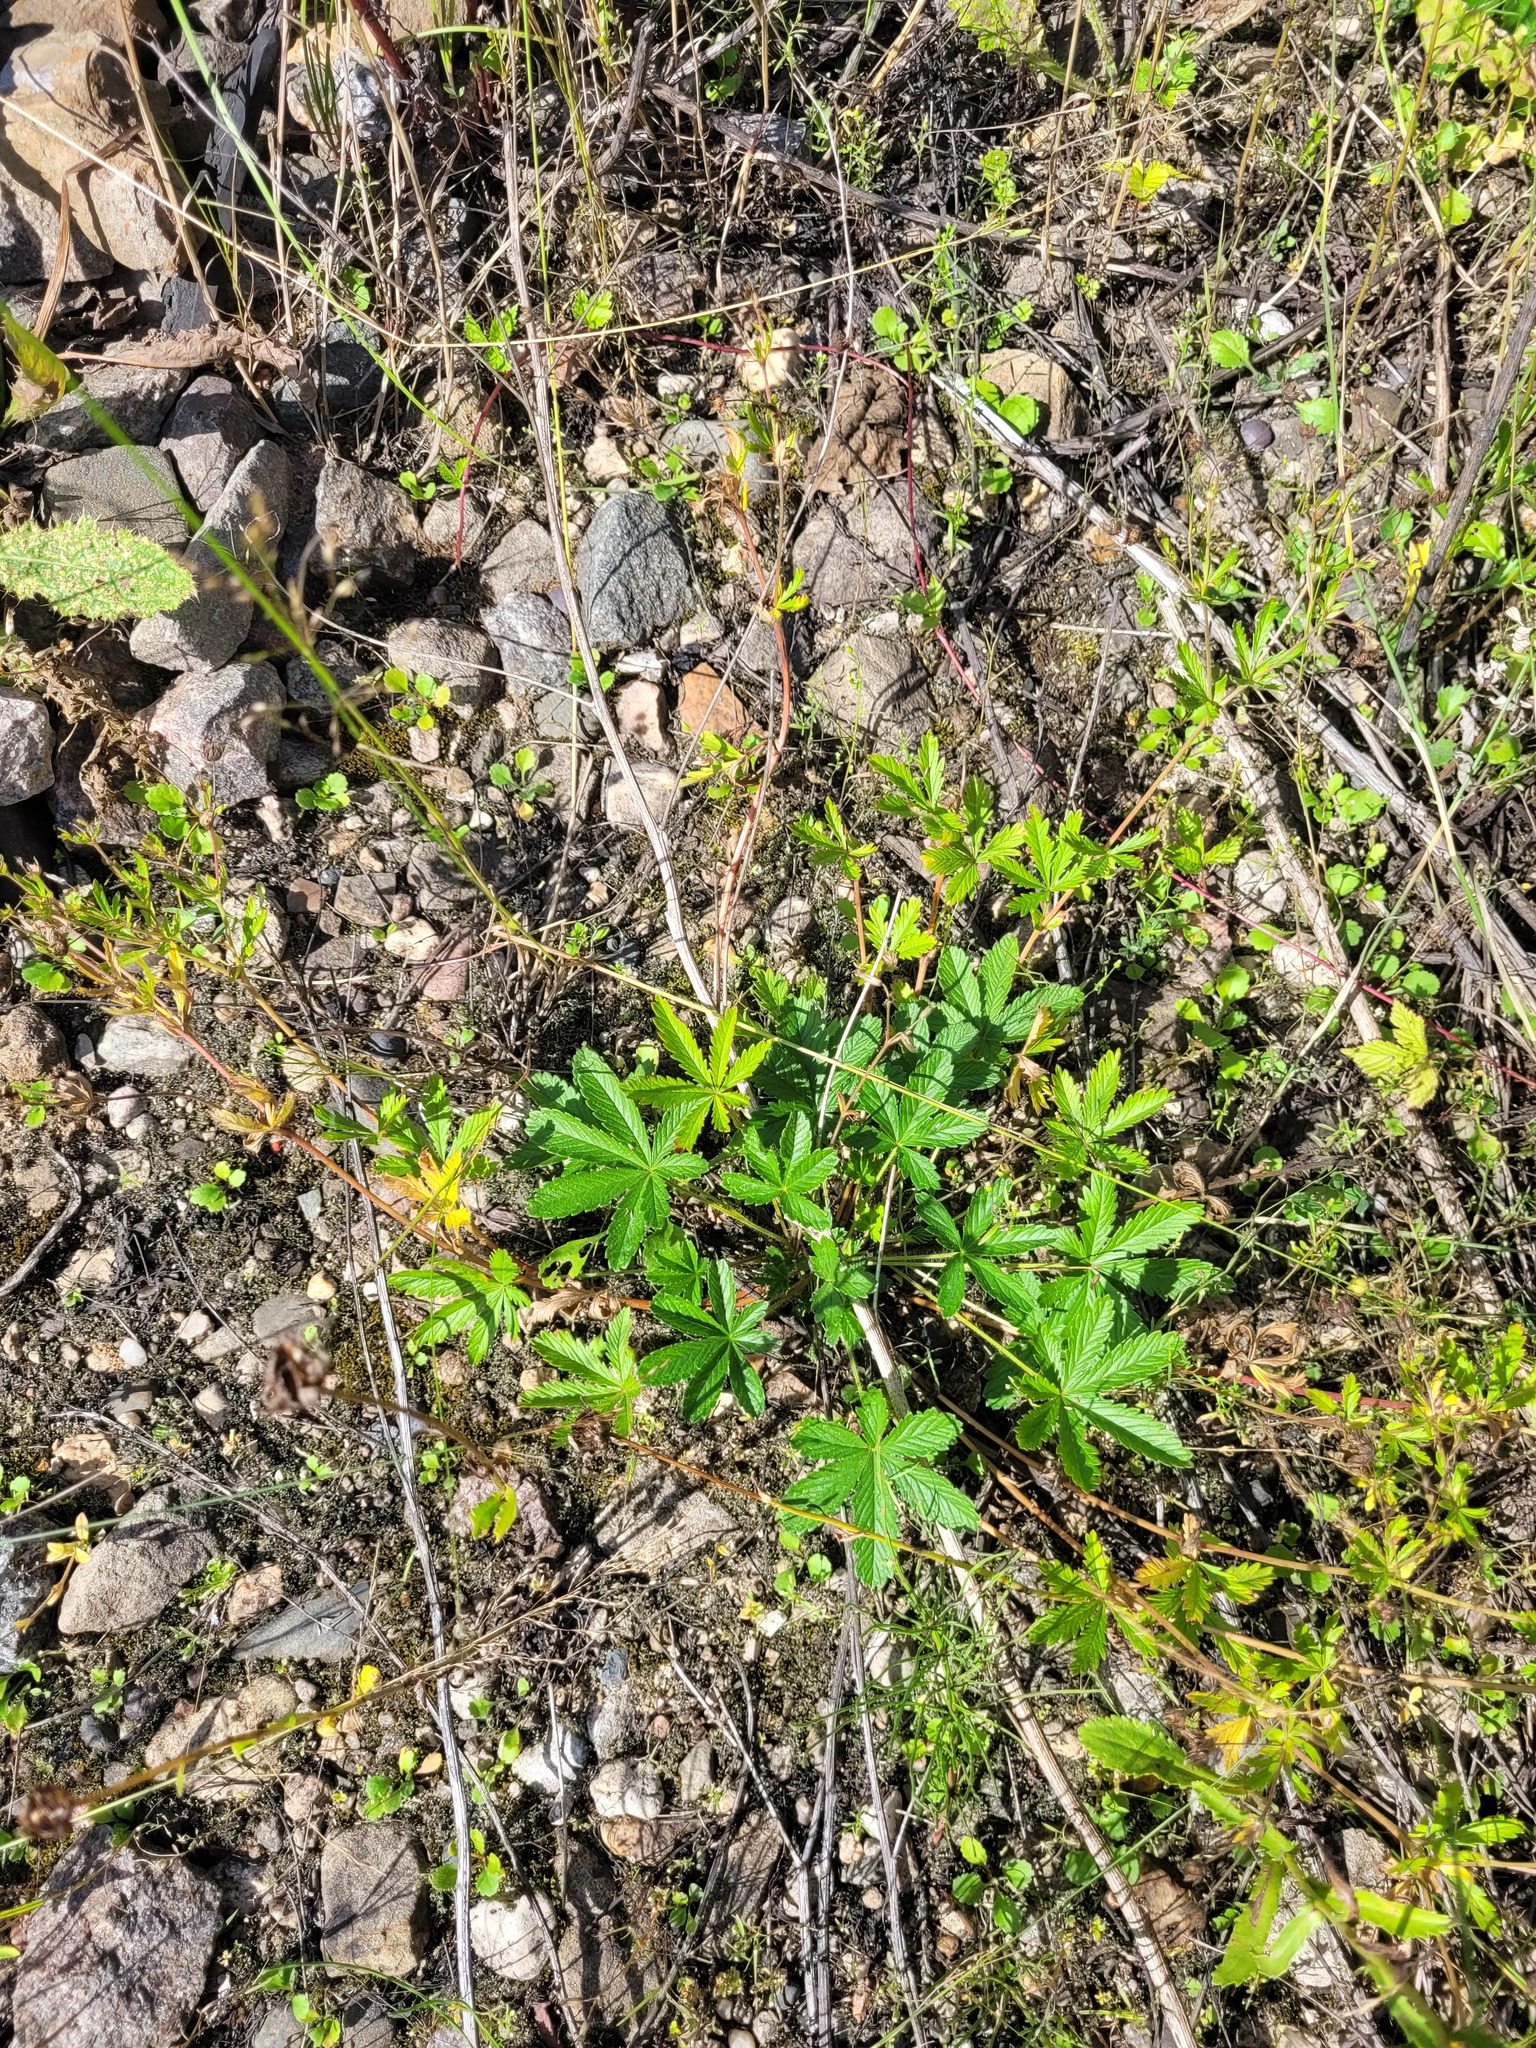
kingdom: Plantae
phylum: Tracheophyta
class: Magnoliopsida
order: Rosales
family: Rosaceae
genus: Potentilla
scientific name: Potentilla thuringiaca
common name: European cinquefoil
